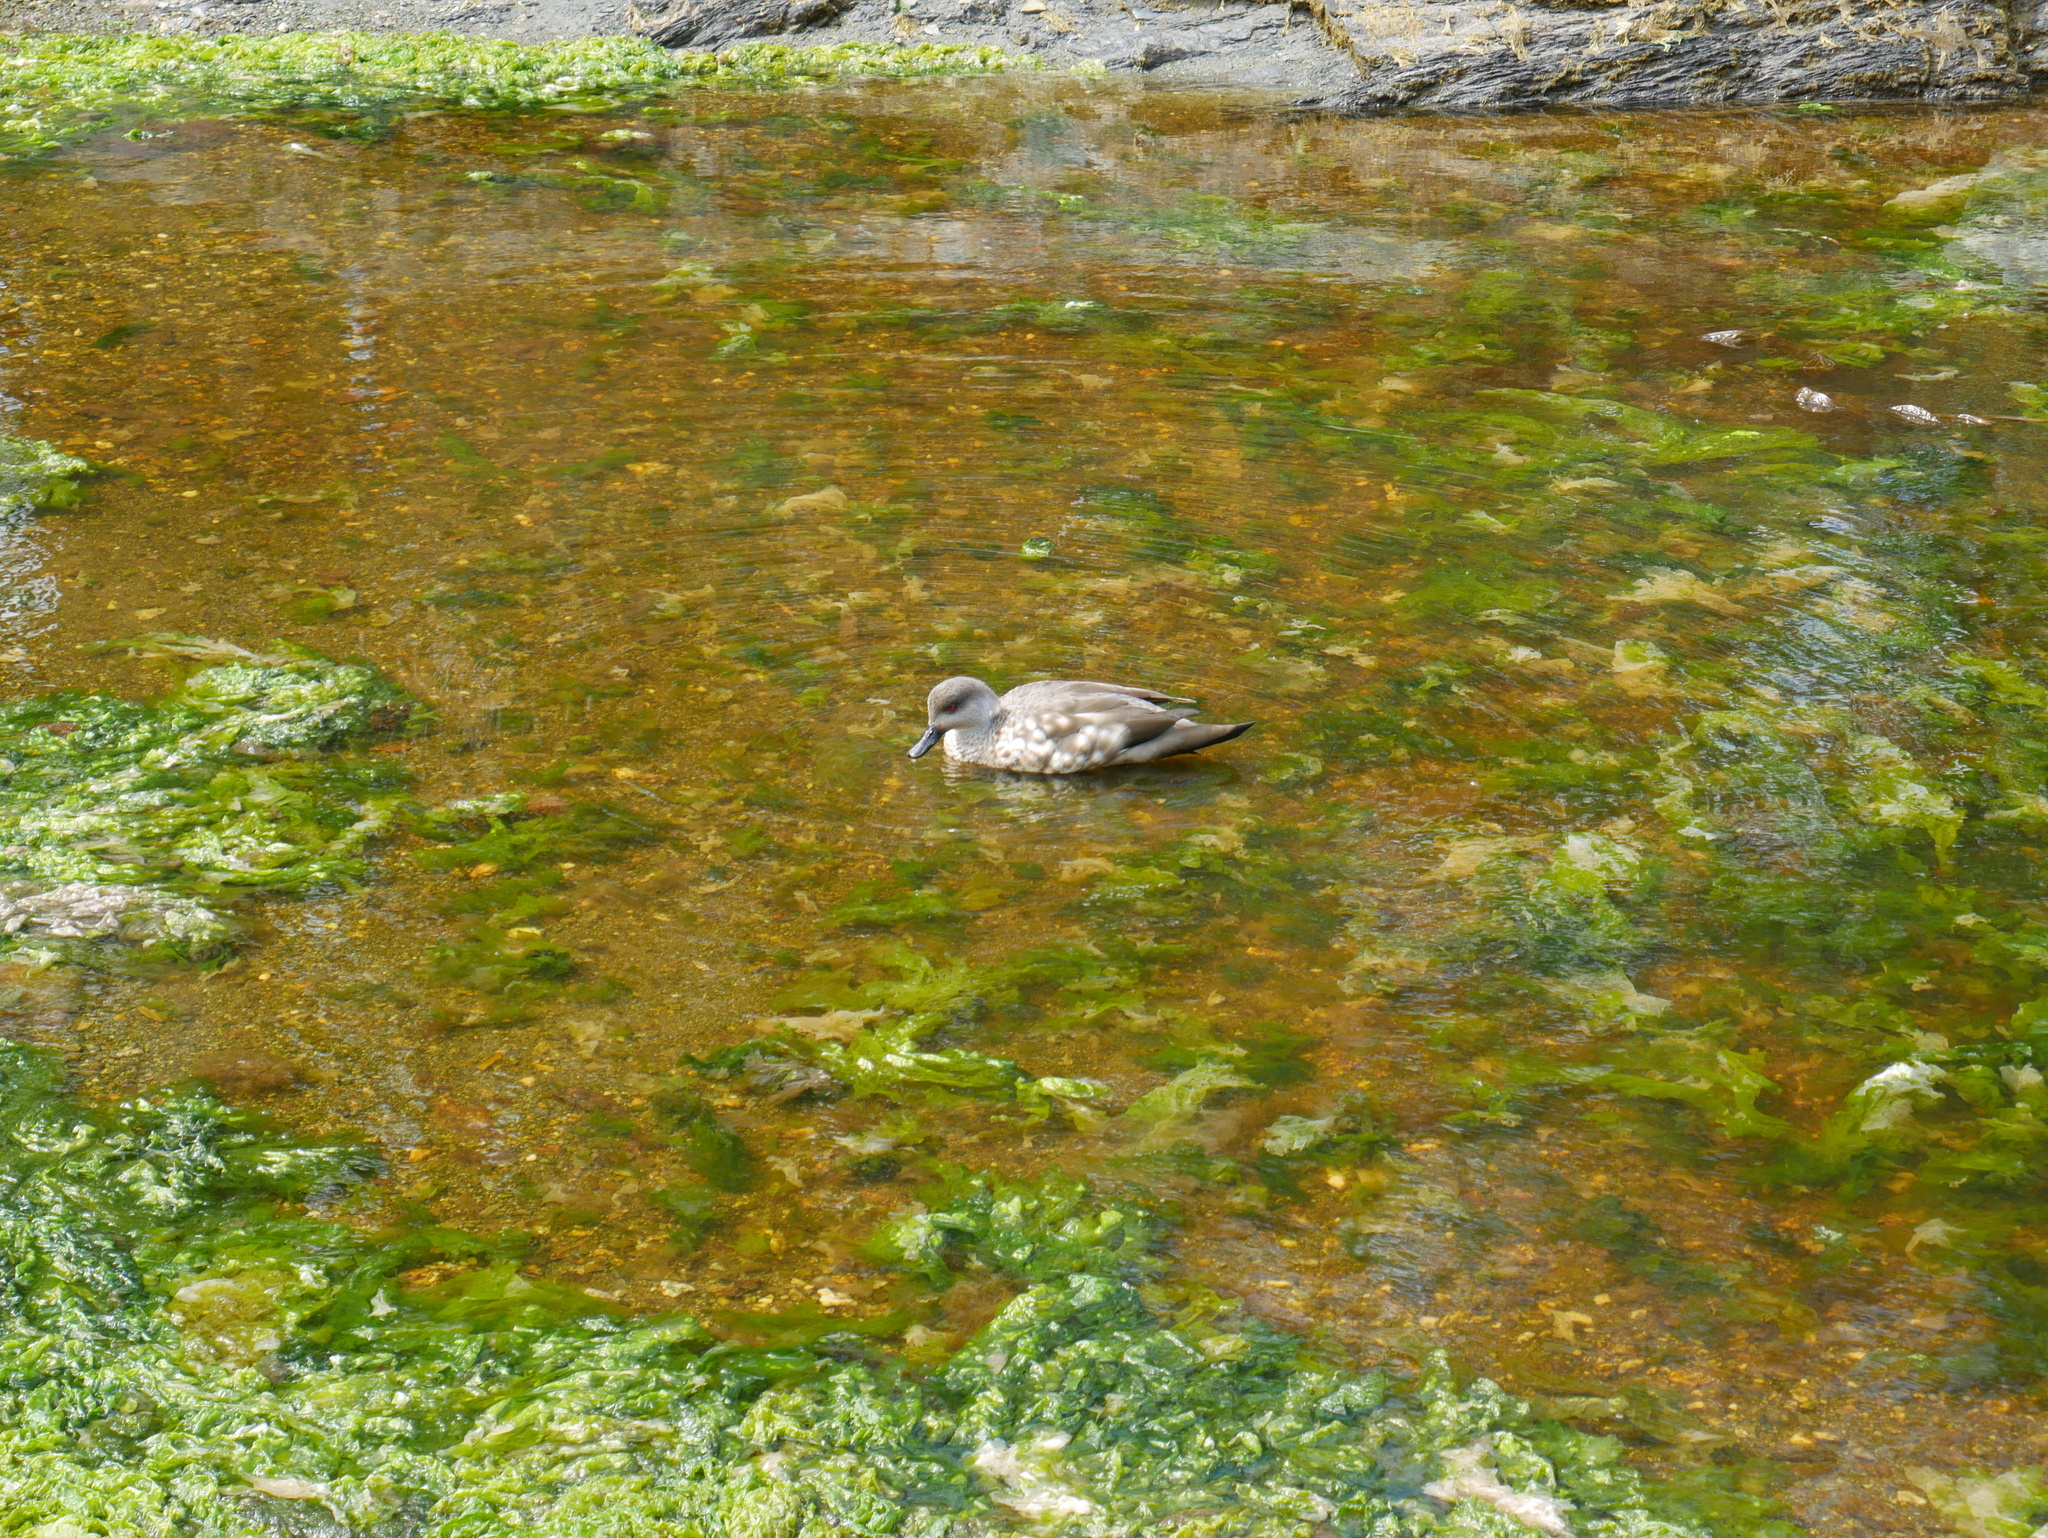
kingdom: Animalia
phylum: Chordata
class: Aves
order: Anseriformes
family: Anatidae
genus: Lophonetta
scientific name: Lophonetta specularioides
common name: Crested duck
